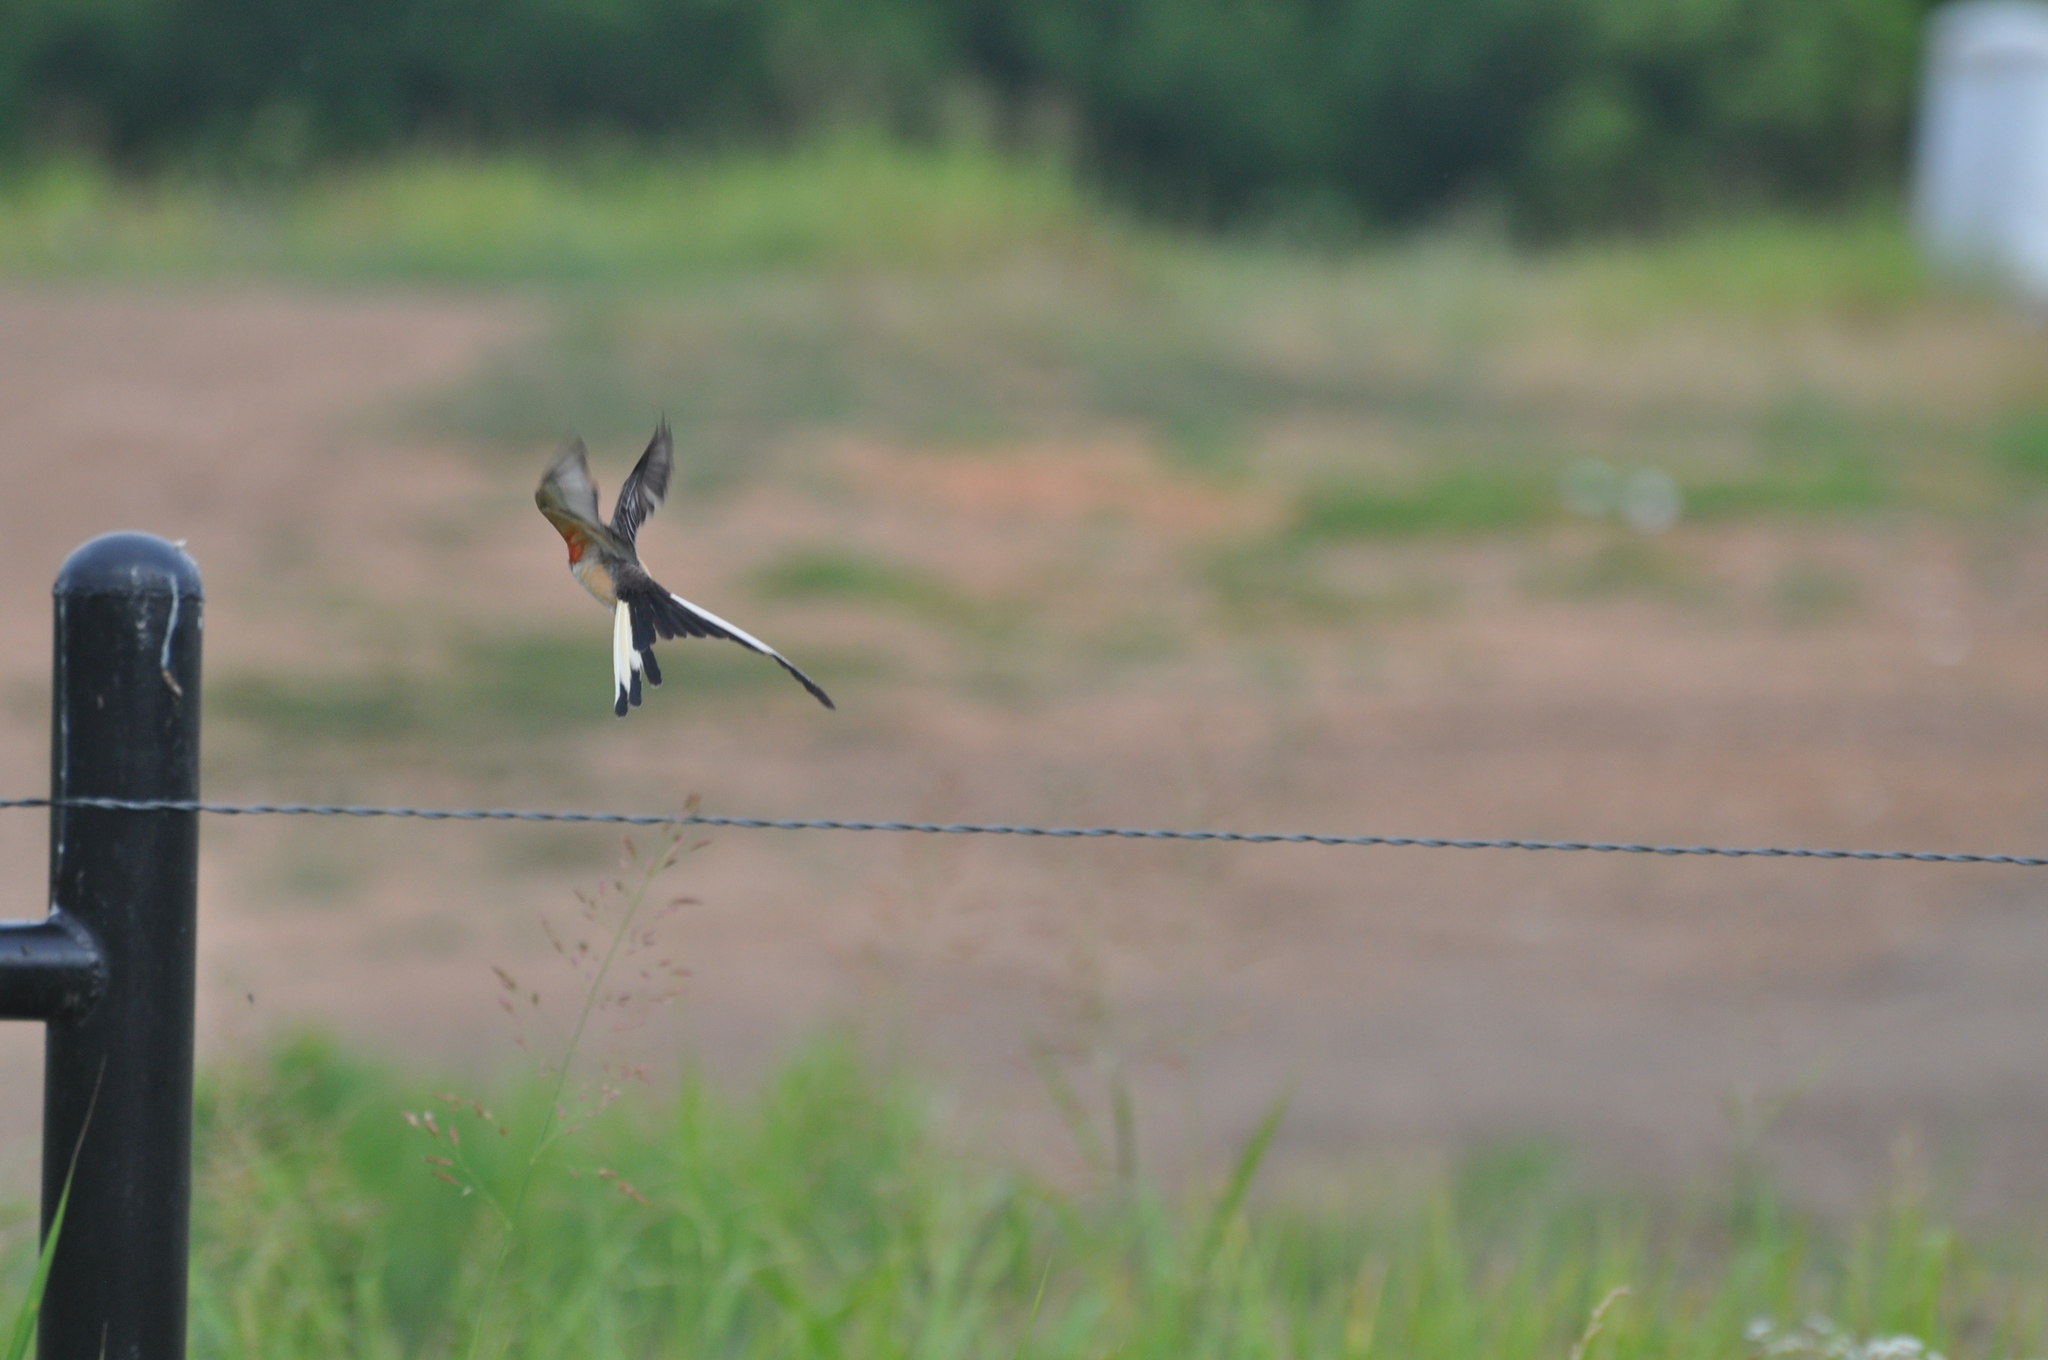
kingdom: Animalia
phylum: Chordata
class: Aves
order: Passeriformes
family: Tyrannidae
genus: Tyrannus
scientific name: Tyrannus forficatus
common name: Scissor-tailed flycatcher
